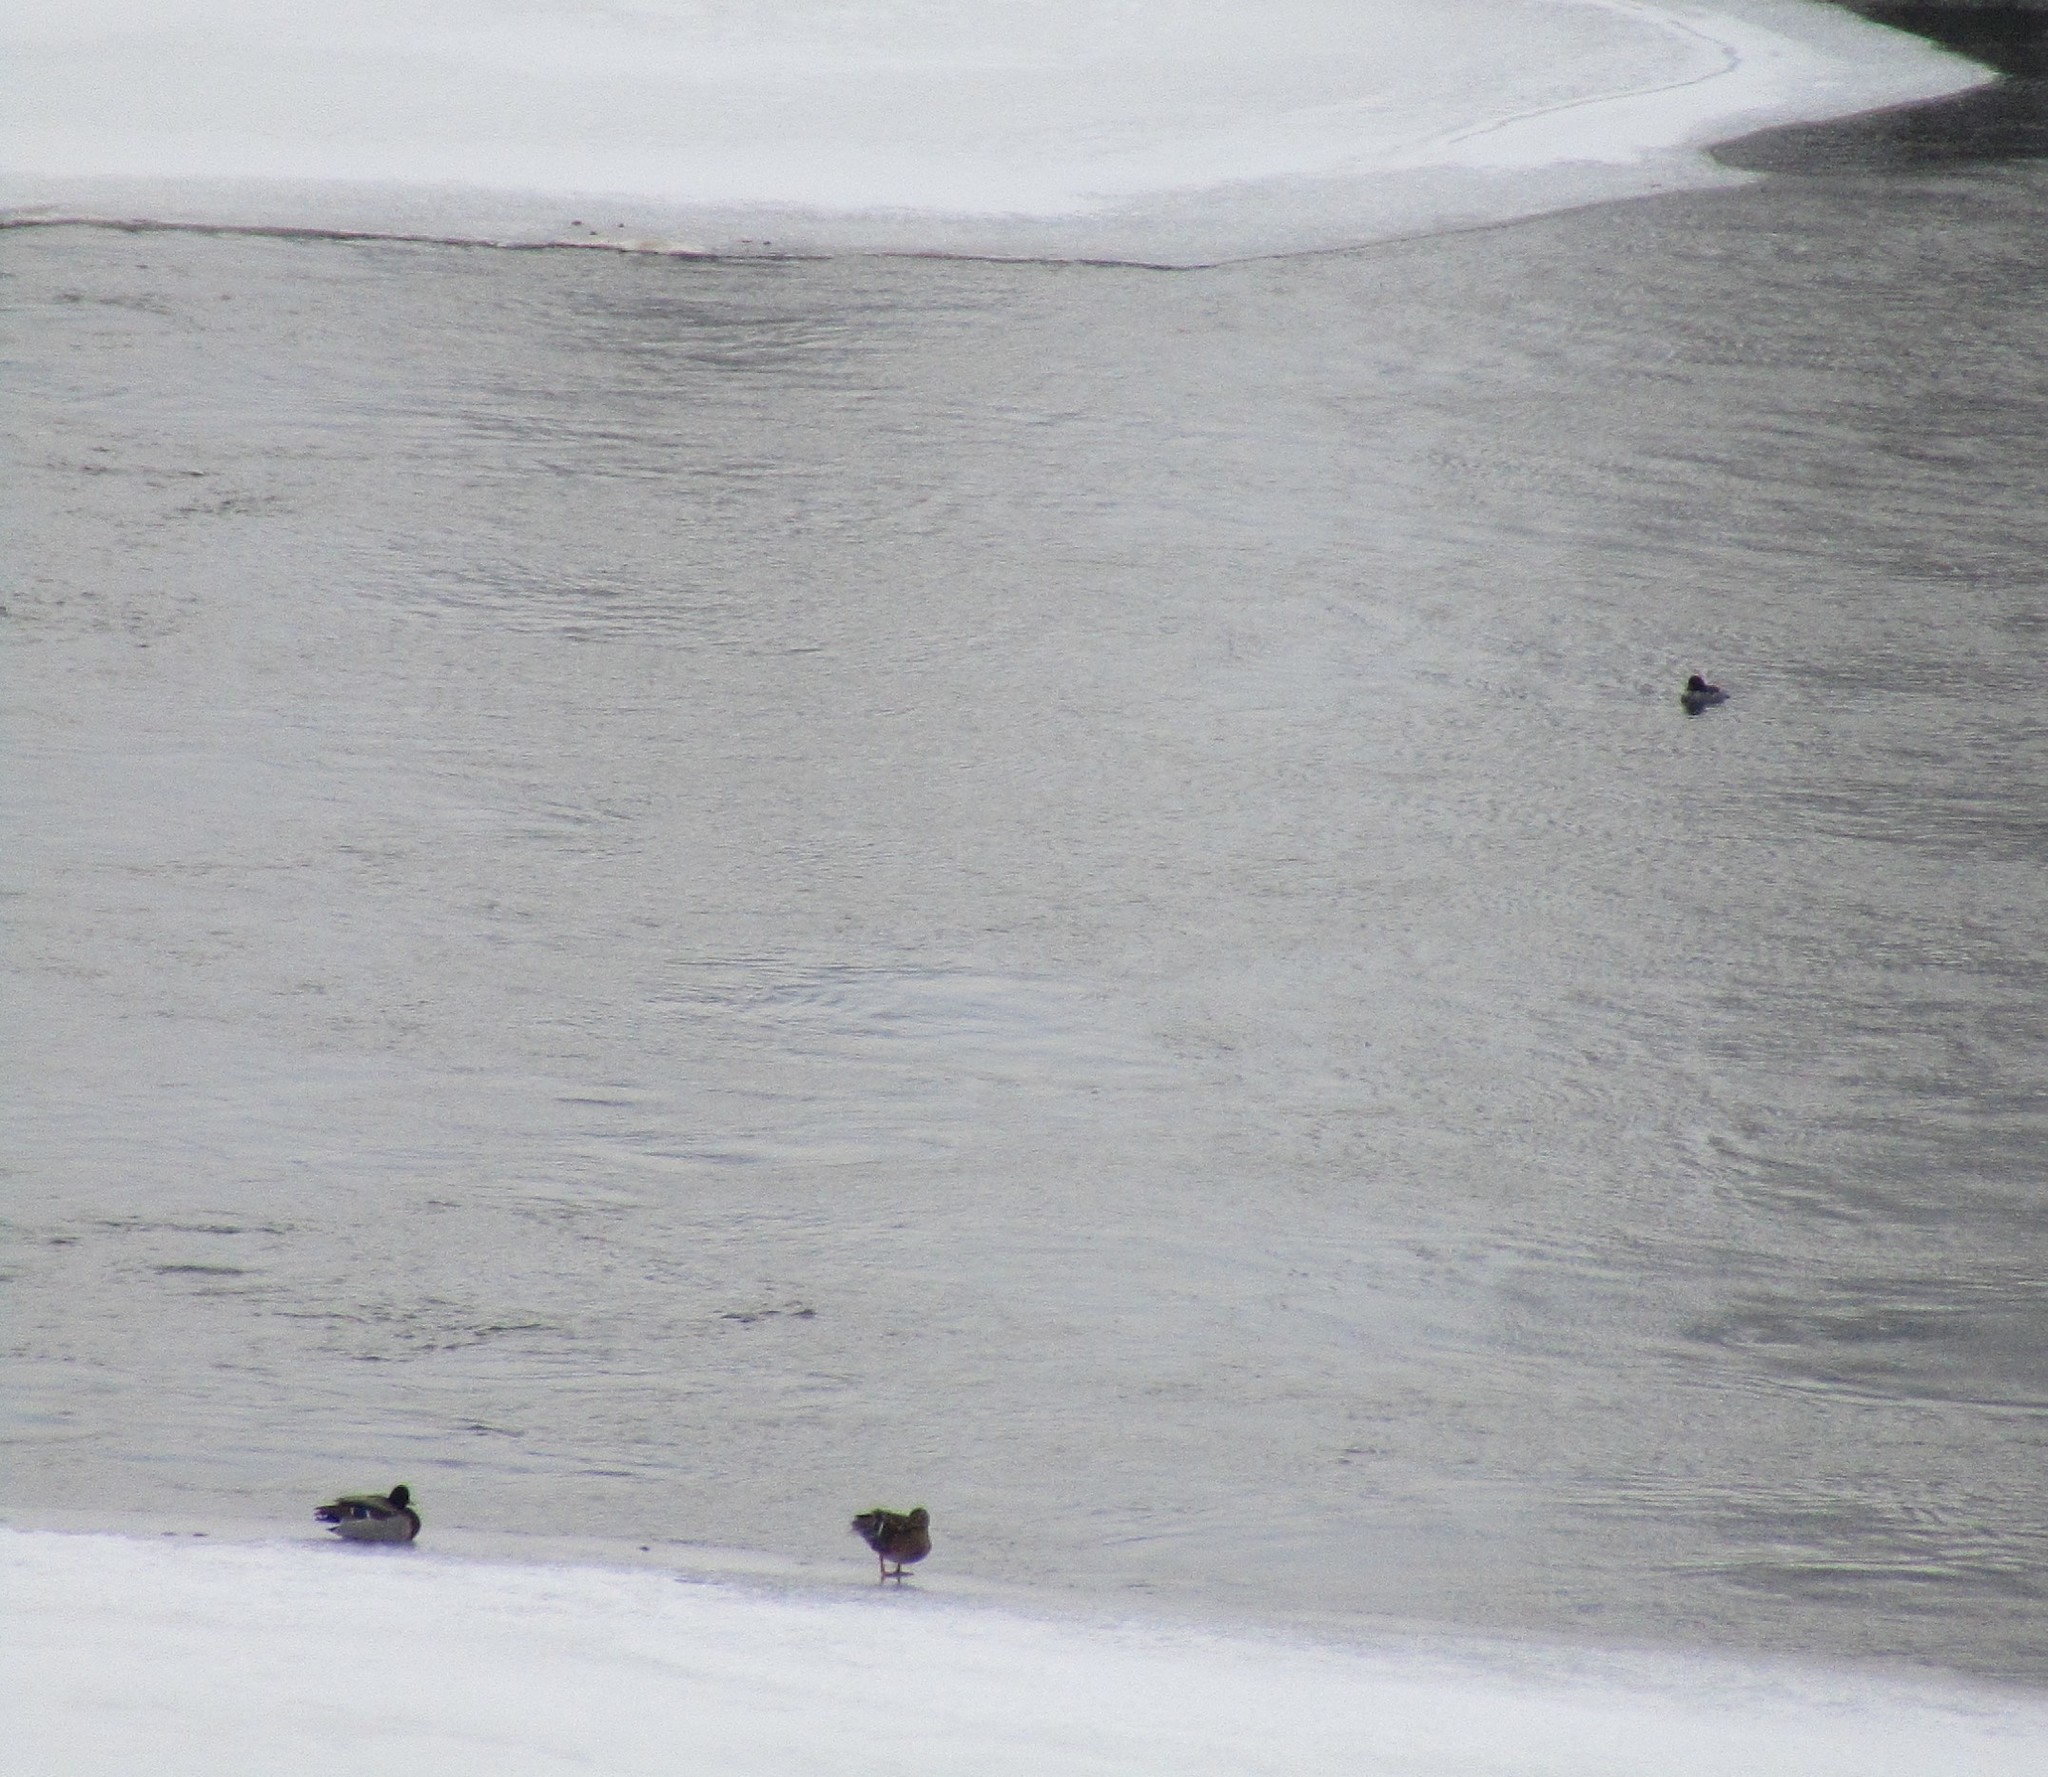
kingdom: Animalia
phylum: Chordata
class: Aves
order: Anseriformes
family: Anatidae
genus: Anas
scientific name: Anas platyrhynchos
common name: Mallard
